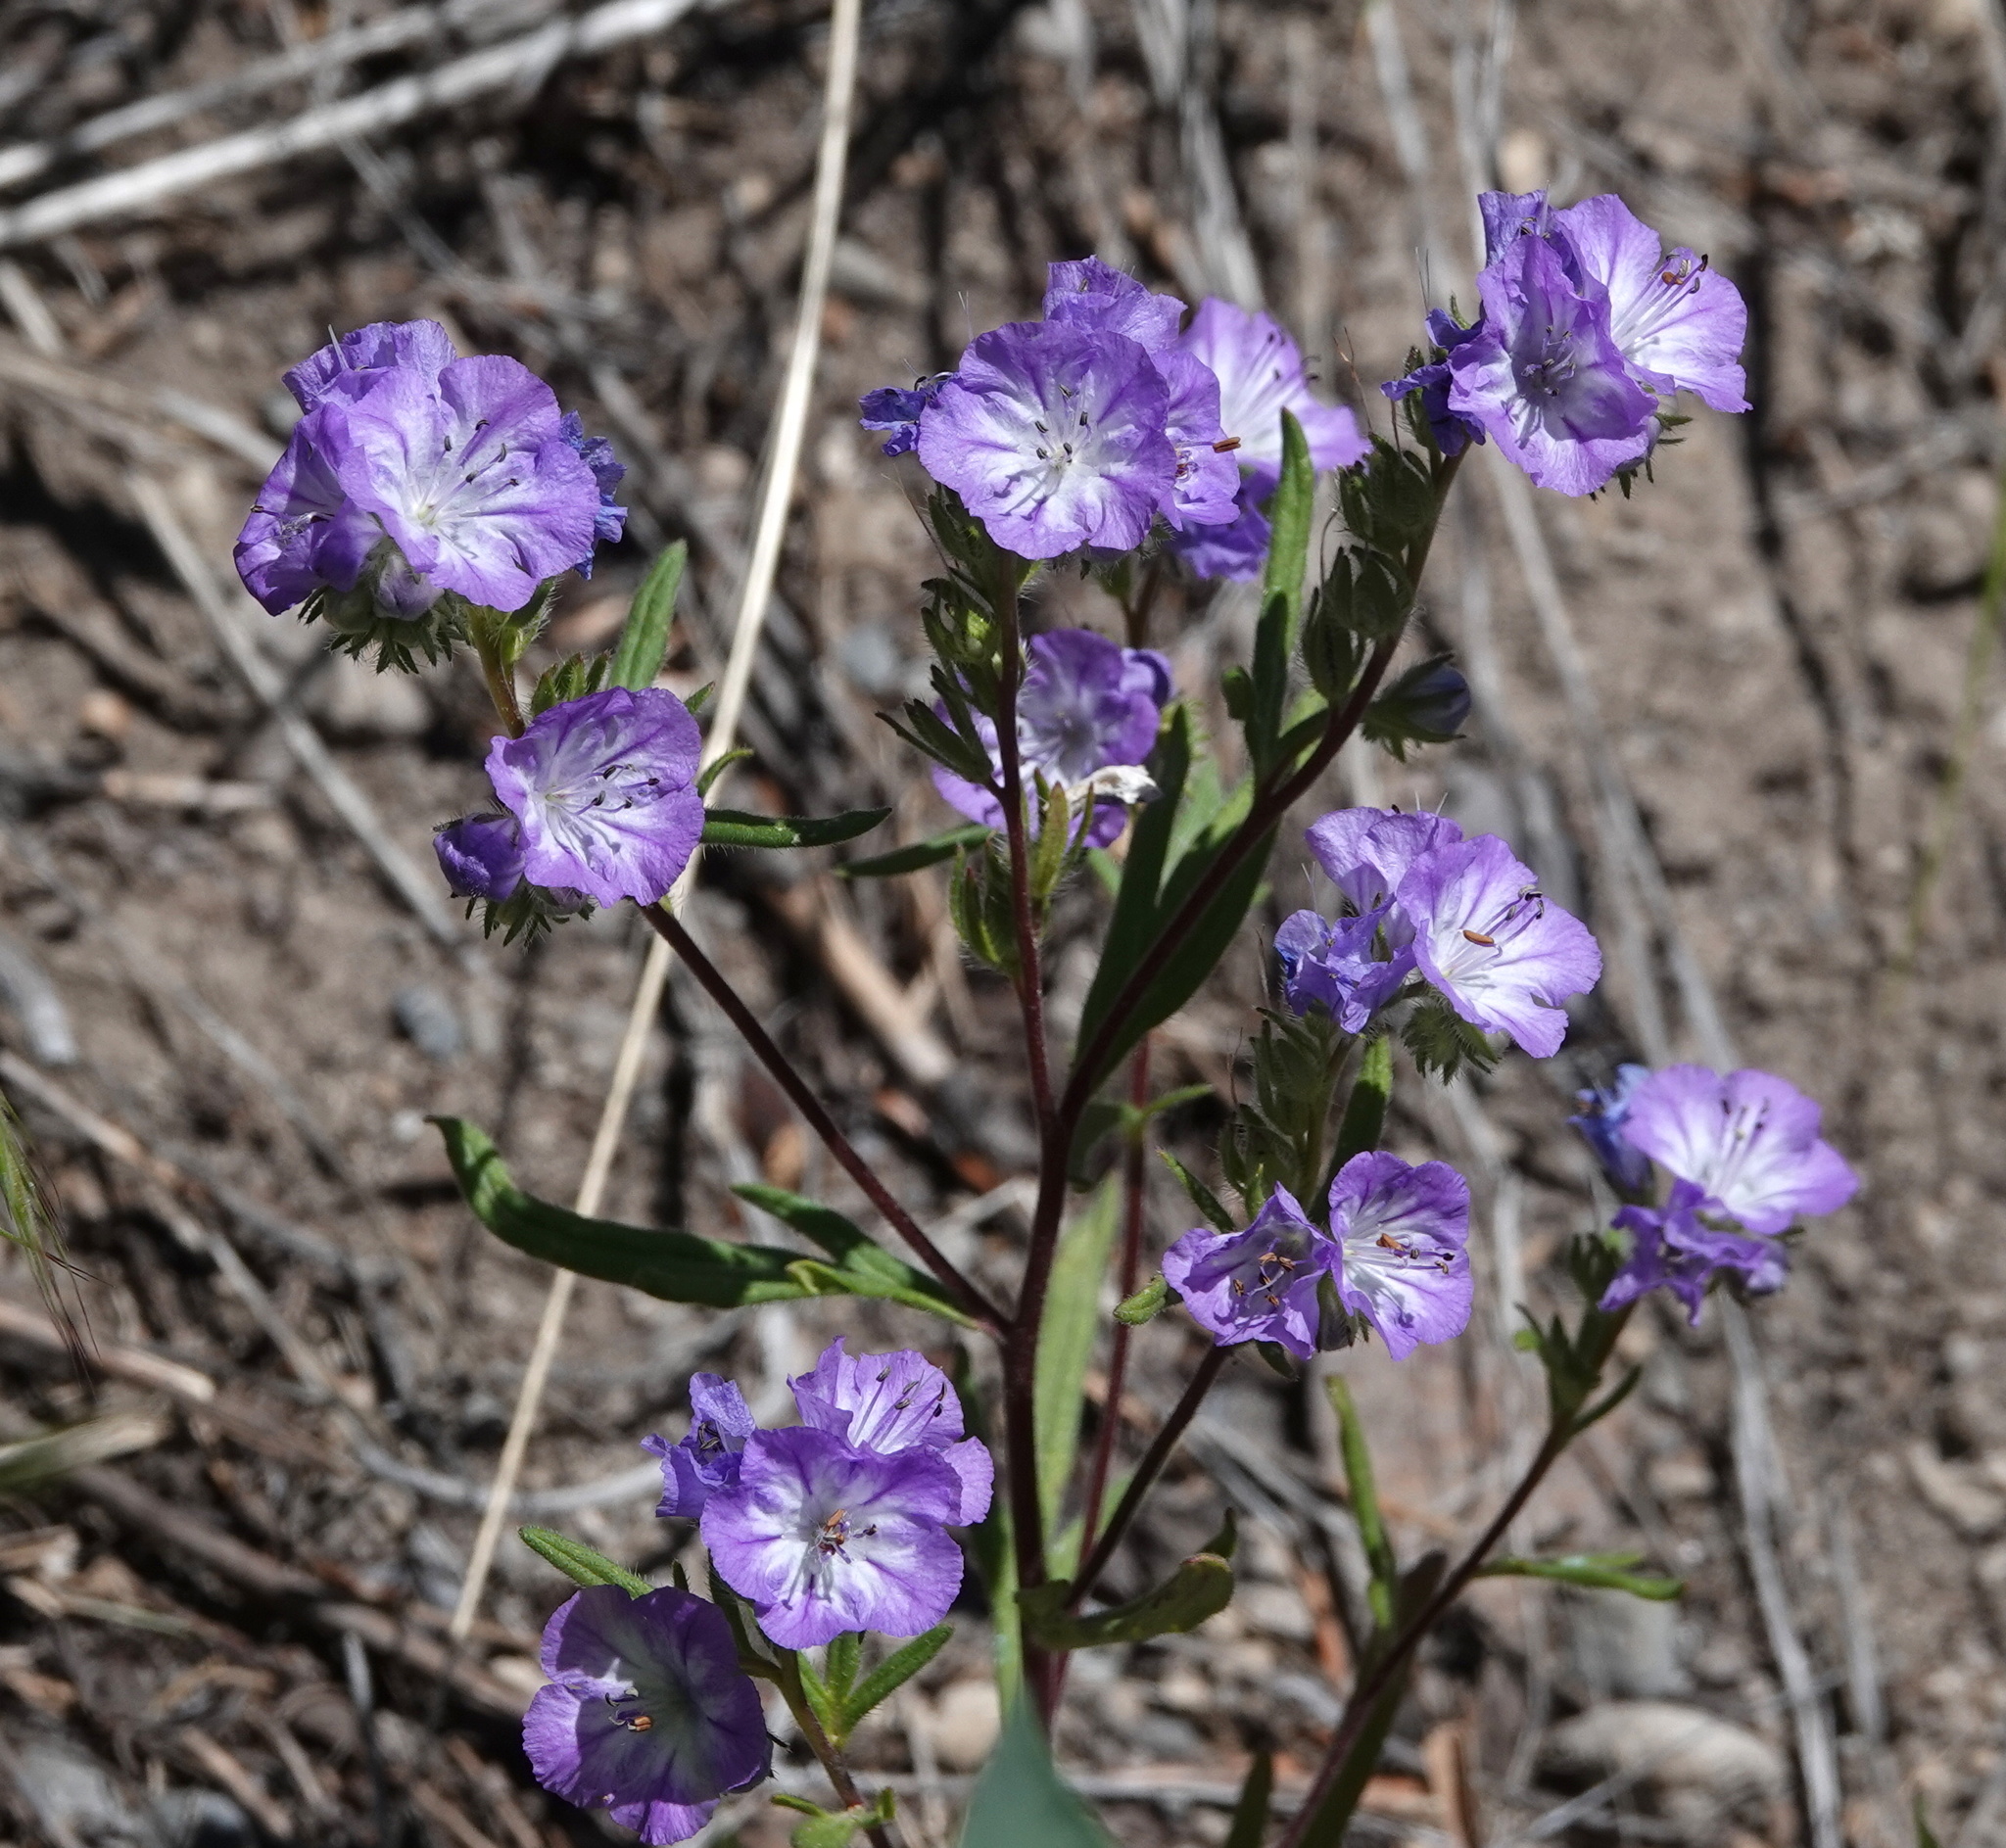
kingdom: Plantae
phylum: Tracheophyta
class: Magnoliopsida
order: Boraginales
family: Hydrophyllaceae
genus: Phacelia
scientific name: Phacelia linearis
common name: Linear-leaved phacelia
